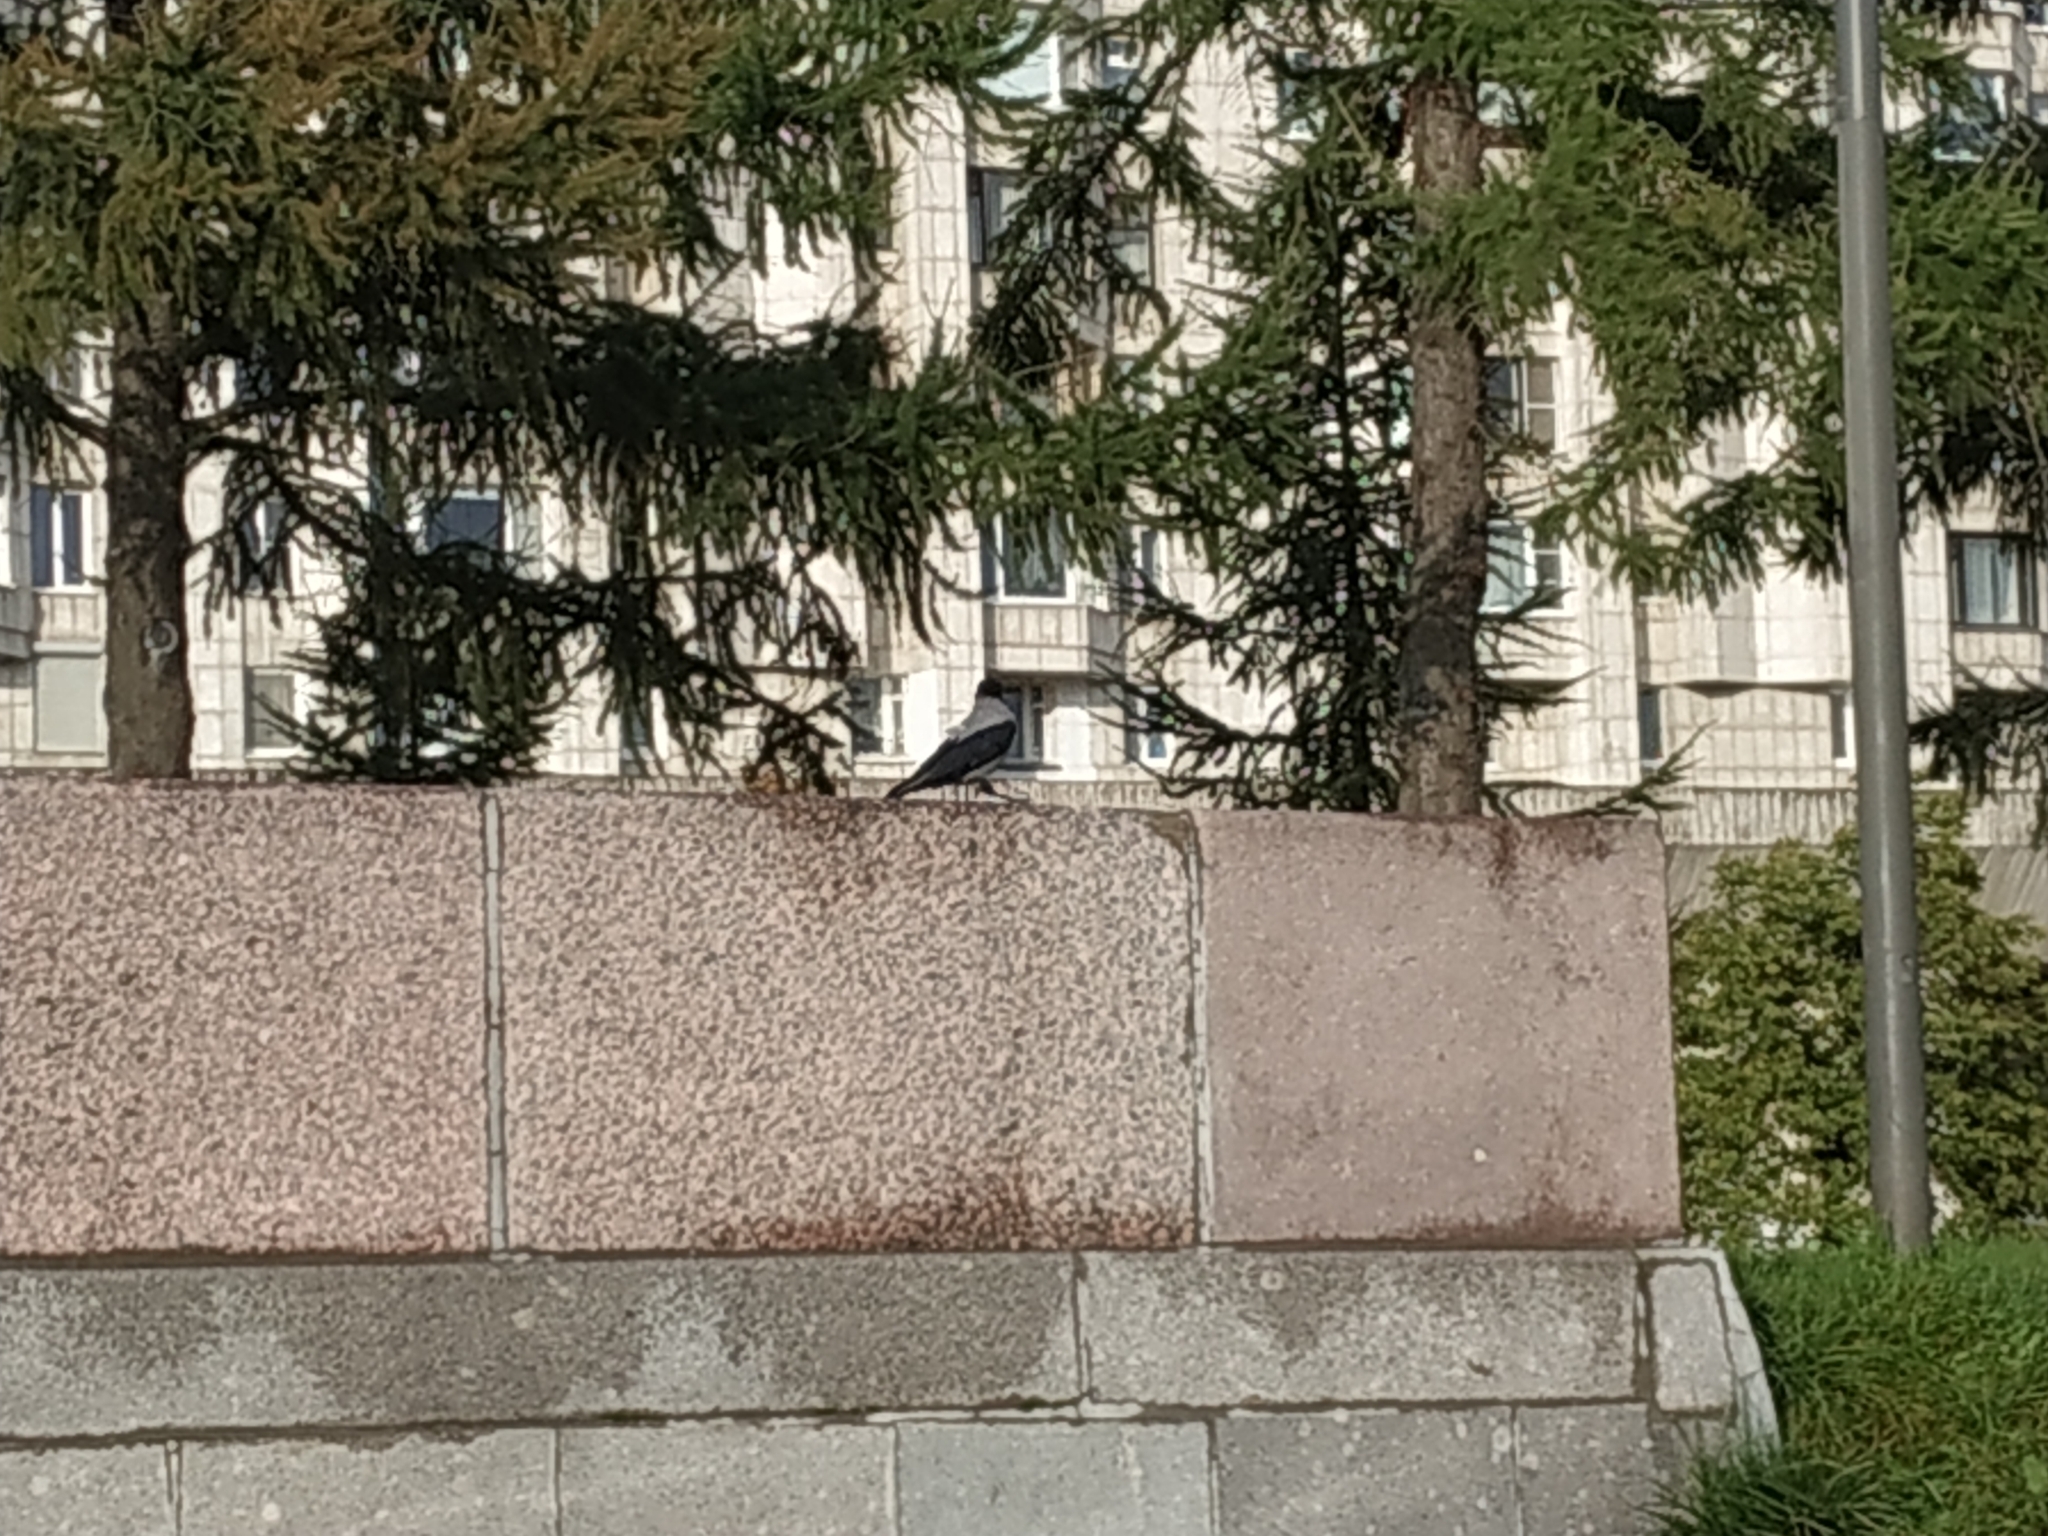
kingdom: Animalia
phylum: Chordata
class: Aves
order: Passeriformes
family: Corvidae
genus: Corvus
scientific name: Corvus cornix
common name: Hooded crow
